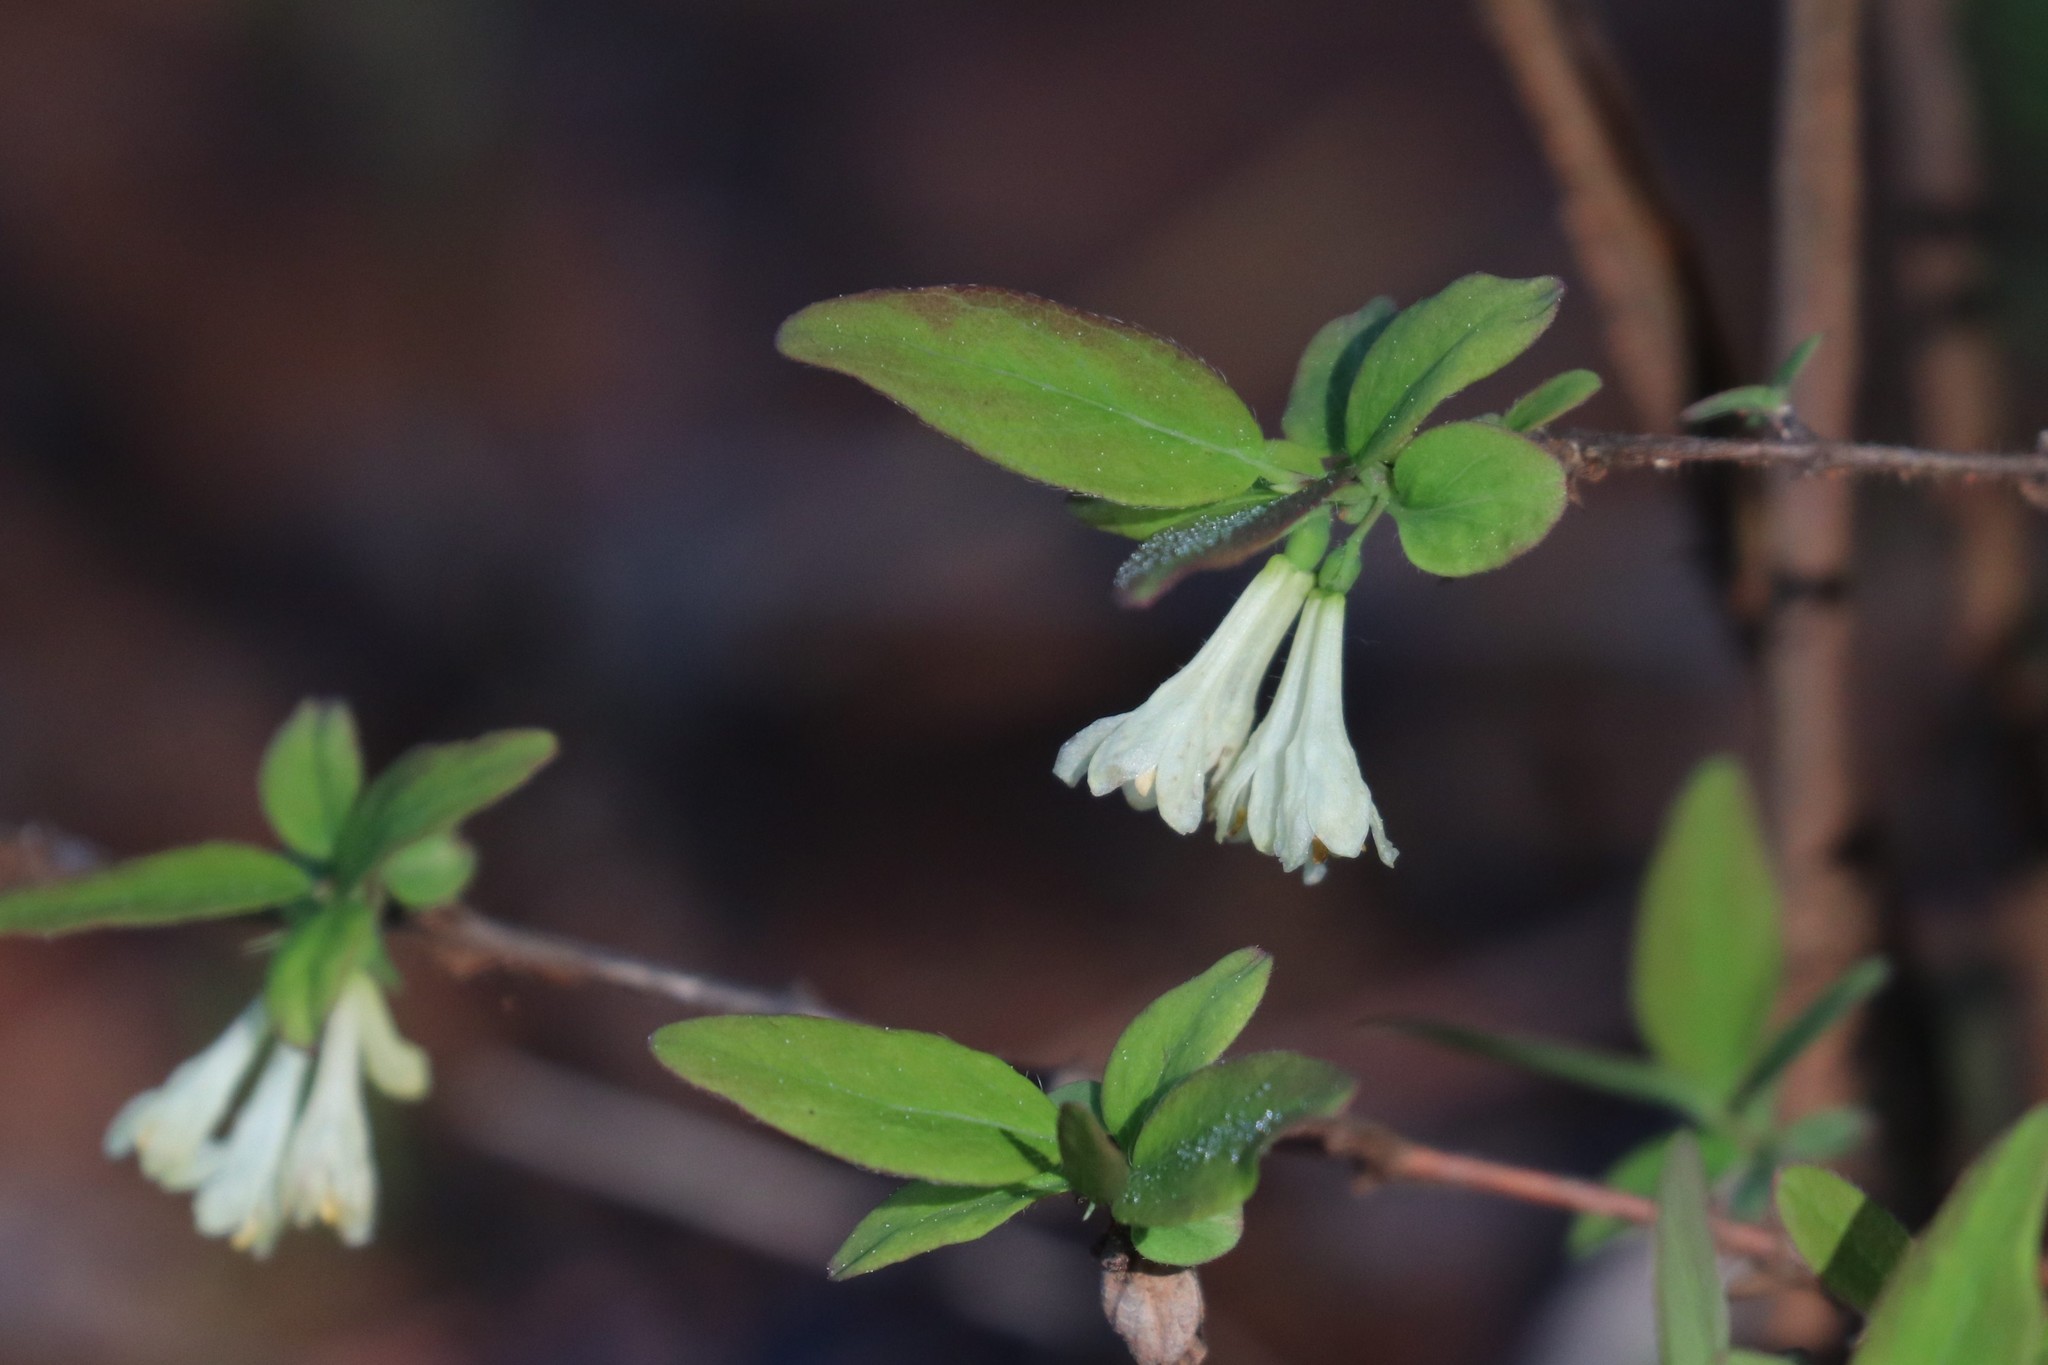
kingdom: Plantae
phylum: Tracheophyta
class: Magnoliopsida
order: Dipsacales
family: Caprifoliaceae
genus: Lonicera
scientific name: Lonicera caerulea
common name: Blue honeysuckle
